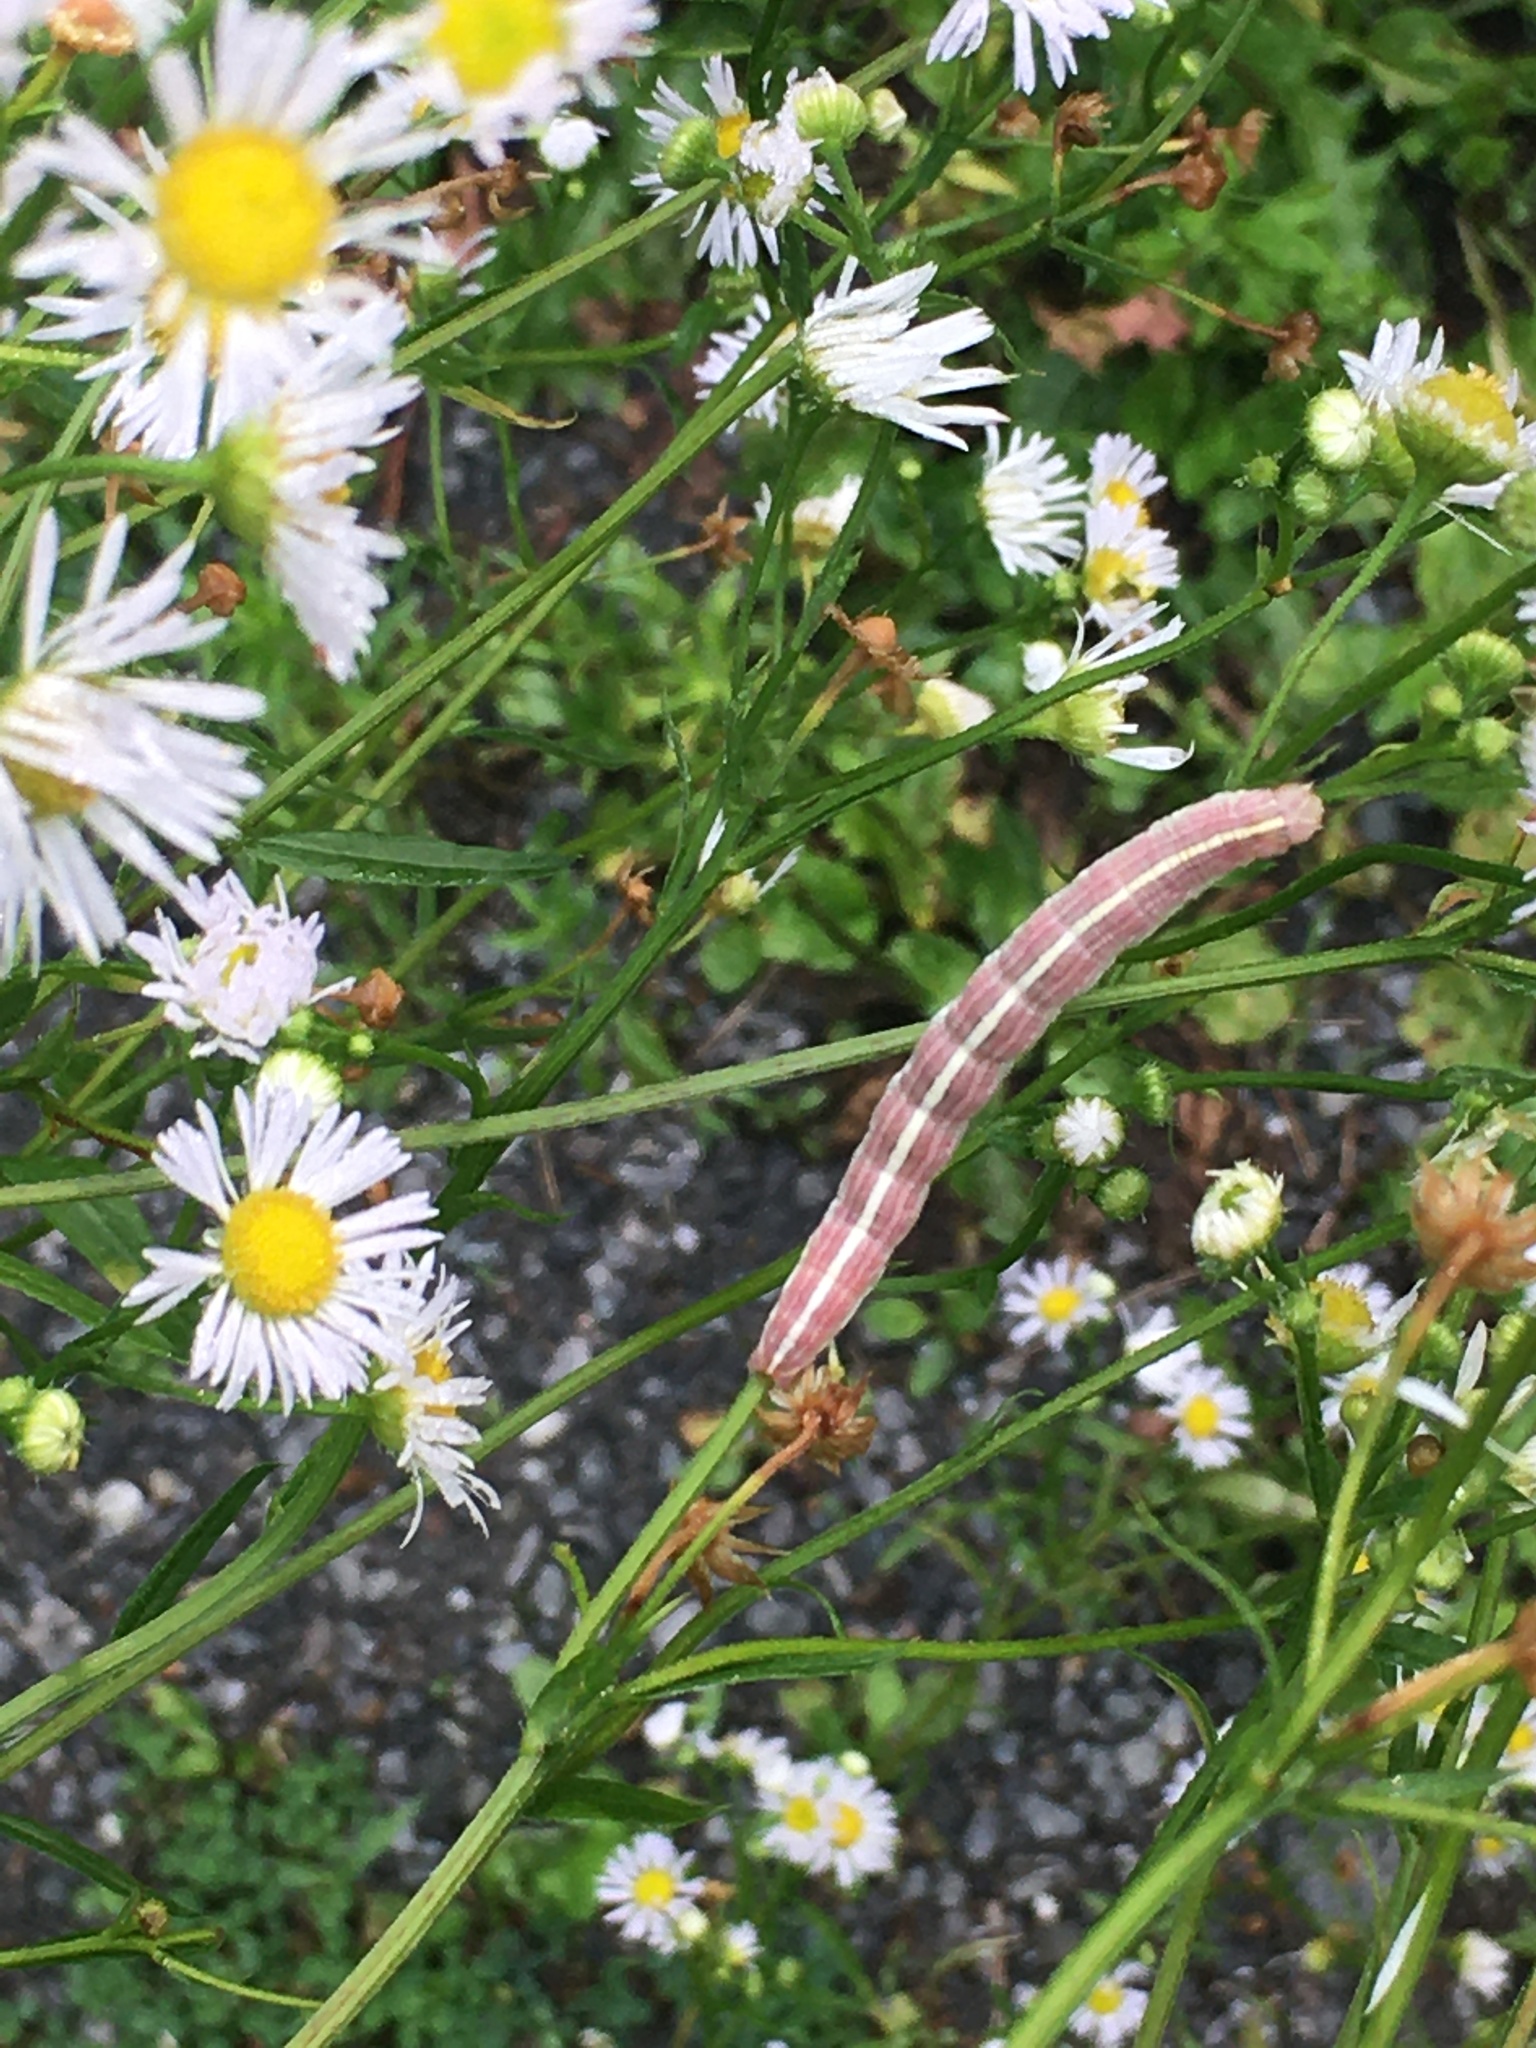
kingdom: Animalia
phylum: Arthropoda
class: Insecta
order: Lepidoptera
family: Noctuidae
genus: Cucullia
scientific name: Cucullia florea
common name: Gray hooded owlet
